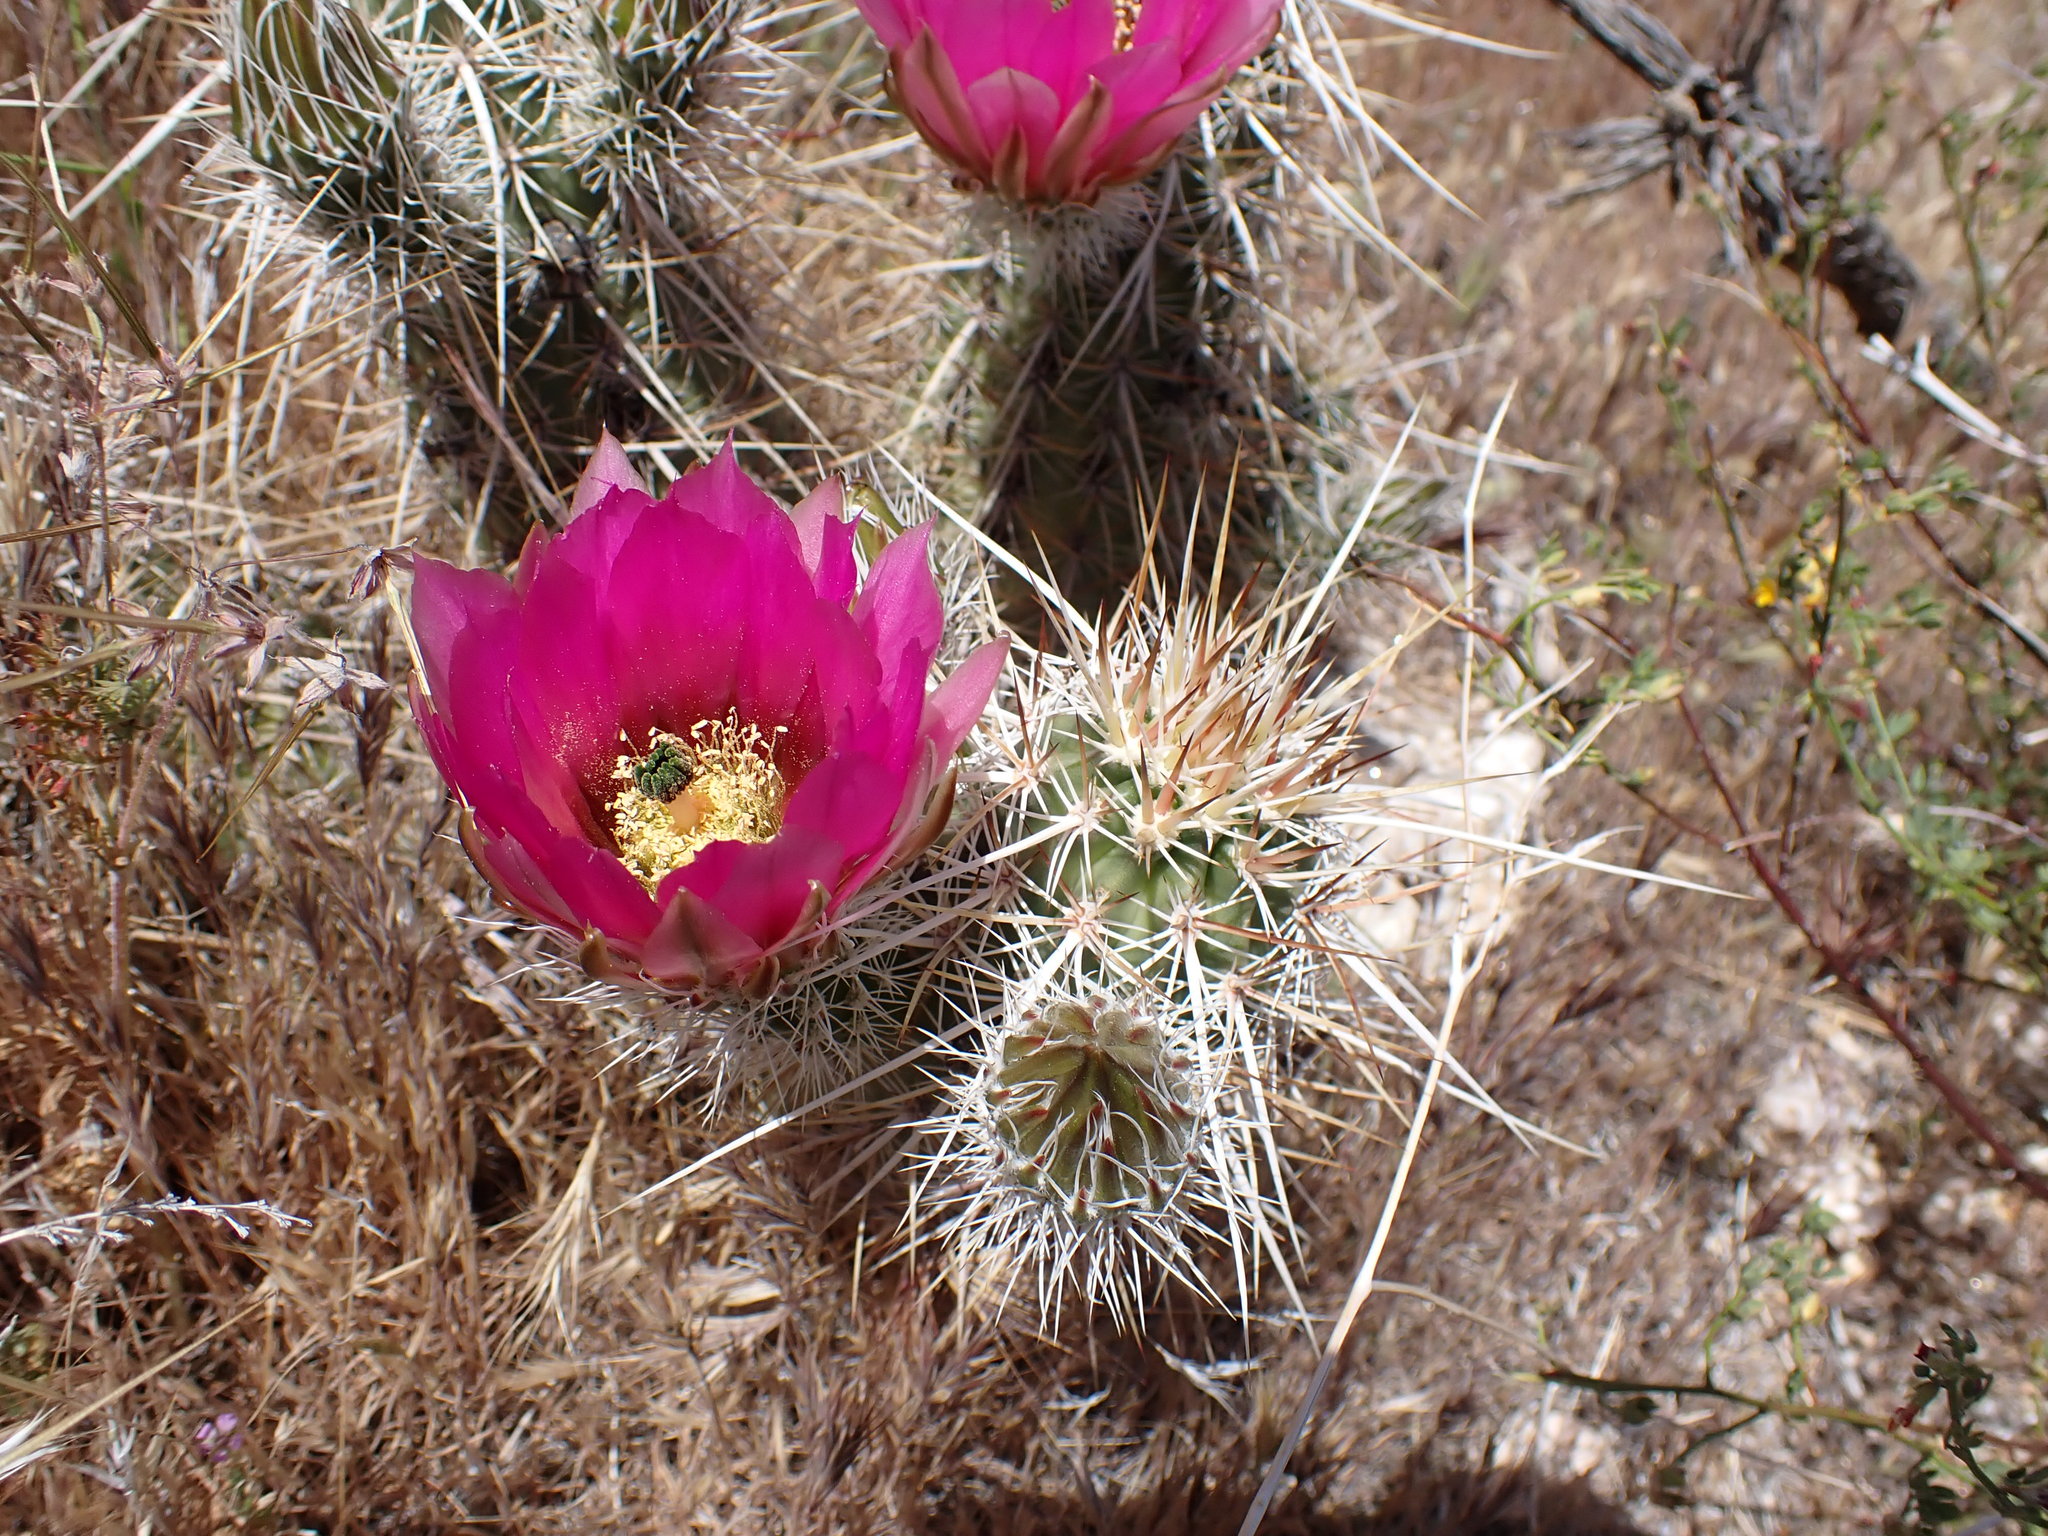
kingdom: Plantae
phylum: Tracheophyta
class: Magnoliopsida
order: Caryophyllales
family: Cactaceae
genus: Echinocereus
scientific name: Echinocereus engelmannii
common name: Engelmann's hedgehog cactus
